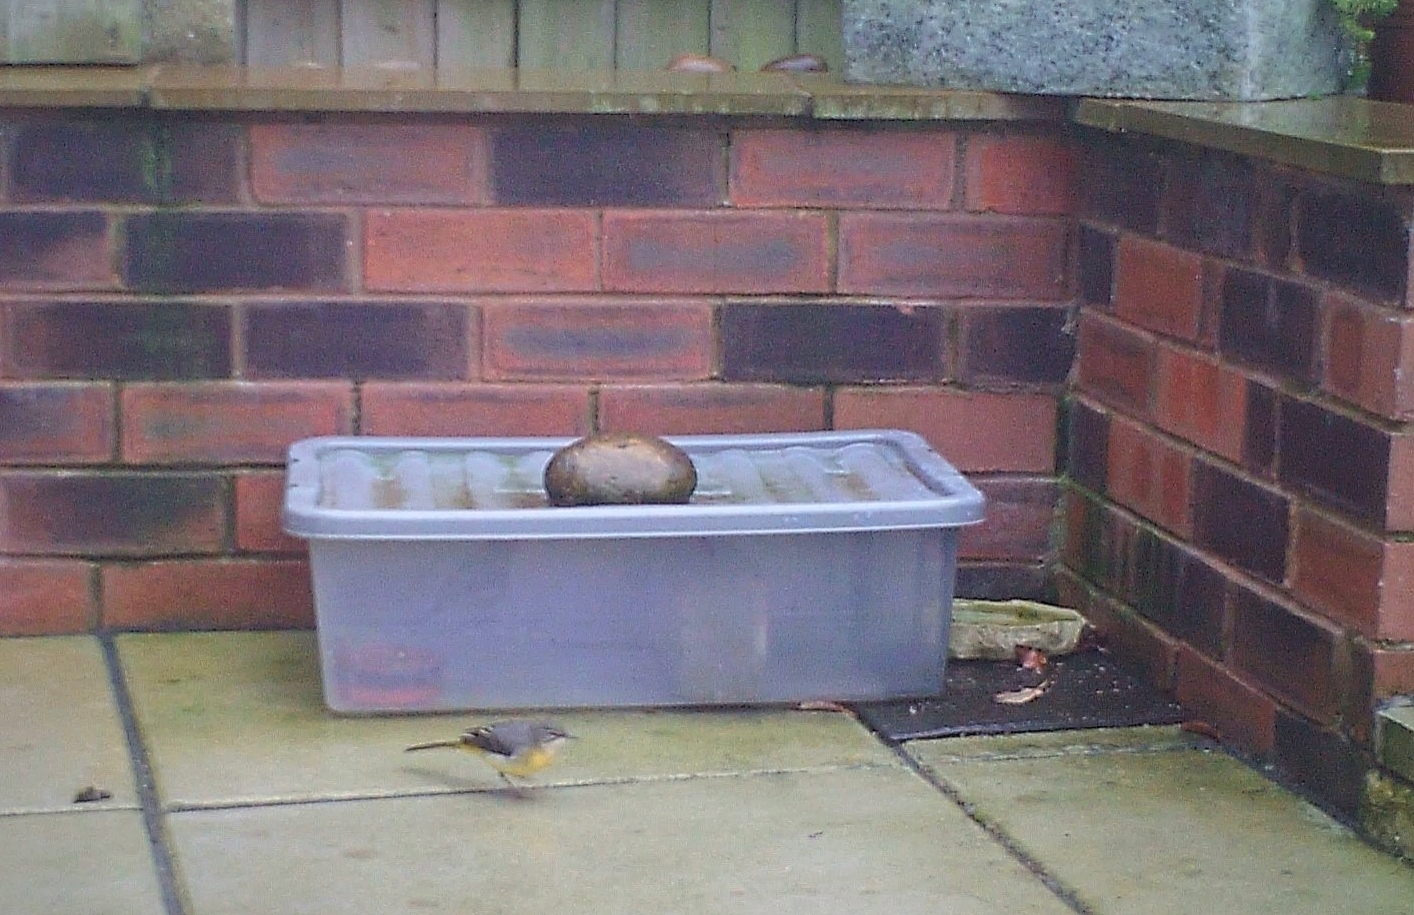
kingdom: Animalia
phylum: Chordata
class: Aves
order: Passeriformes
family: Motacillidae
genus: Motacilla
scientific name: Motacilla cinerea
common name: Grey wagtail
